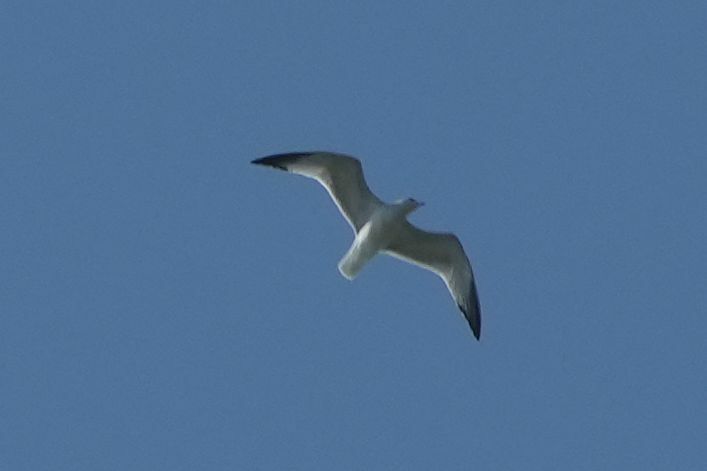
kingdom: Animalia
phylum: Chordata
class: Aves
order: Charadriiformes
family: Laridae
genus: Larus
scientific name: Larus delawarensis
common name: Ring-billed gull
